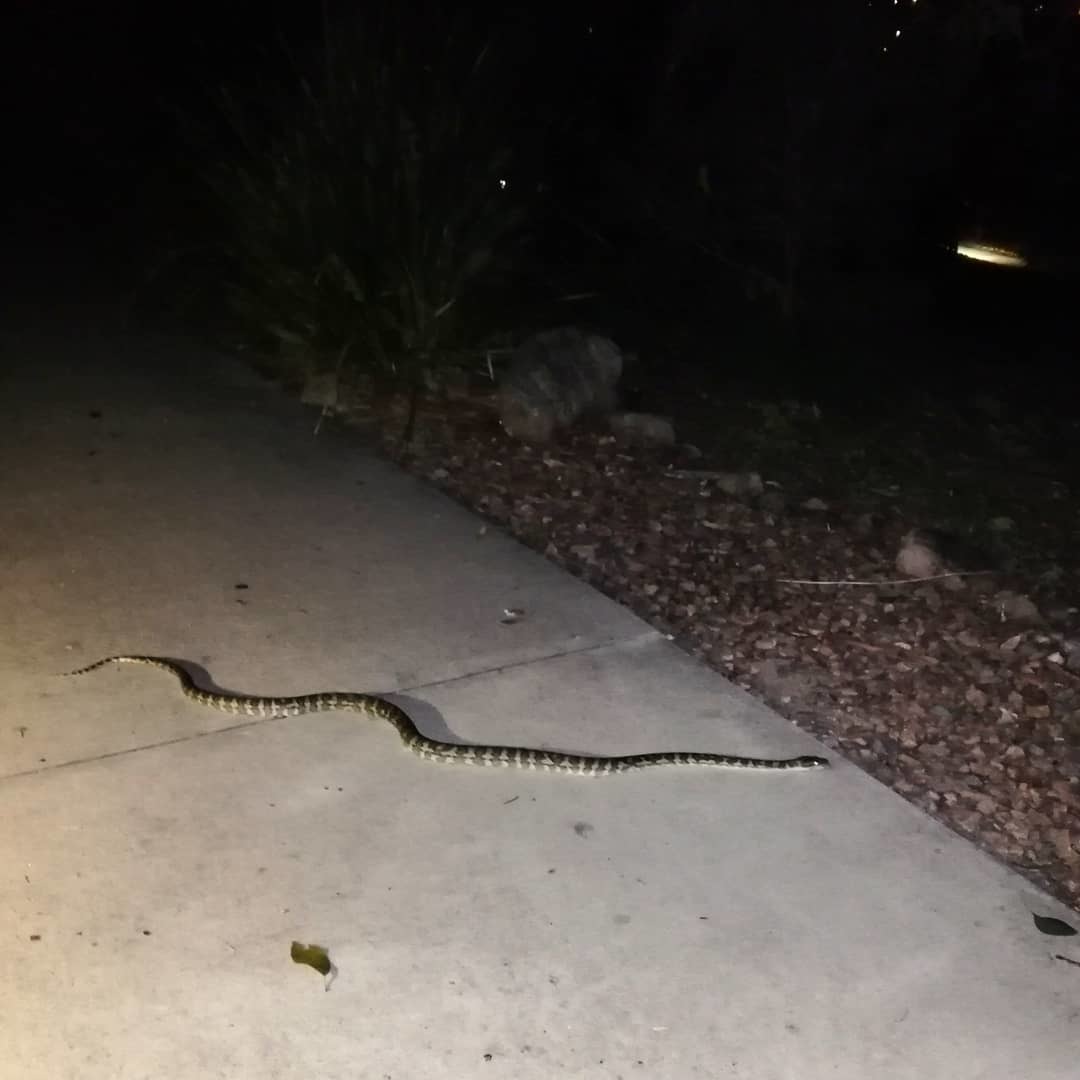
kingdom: Animalia
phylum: Chordata
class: Squamata
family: Pythonidae
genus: Morelia
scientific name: Morelia spilota
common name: Carpet python
